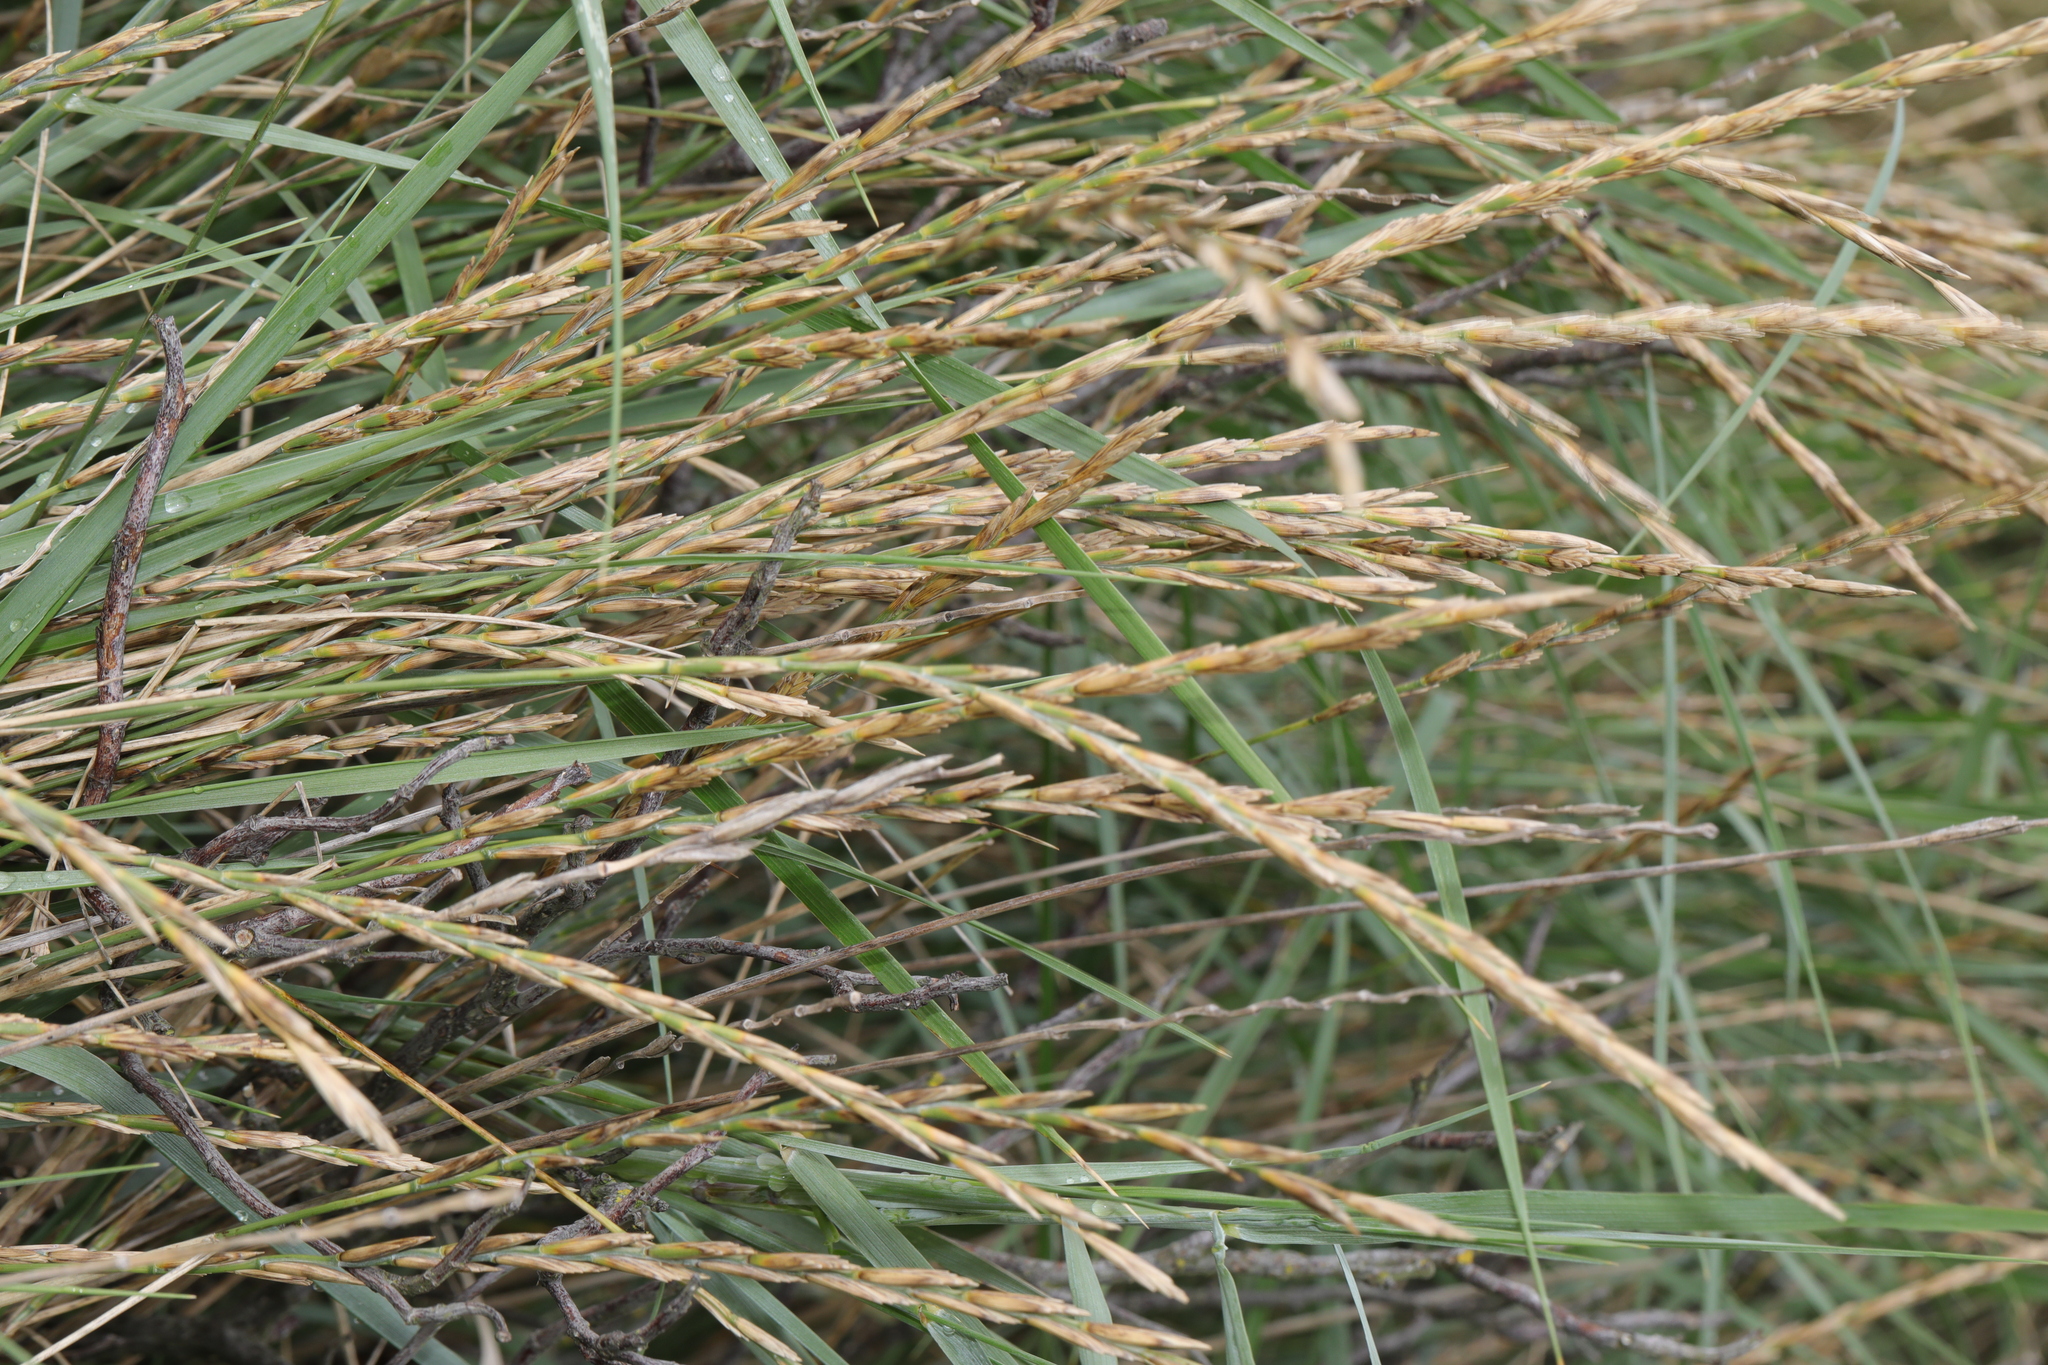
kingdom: Plantae
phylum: Tracheophyta
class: Liliopsida
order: Poales
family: Poaceae
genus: Thinopyrum
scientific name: Thinopyrum junceum
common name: Russian wheatgrass
